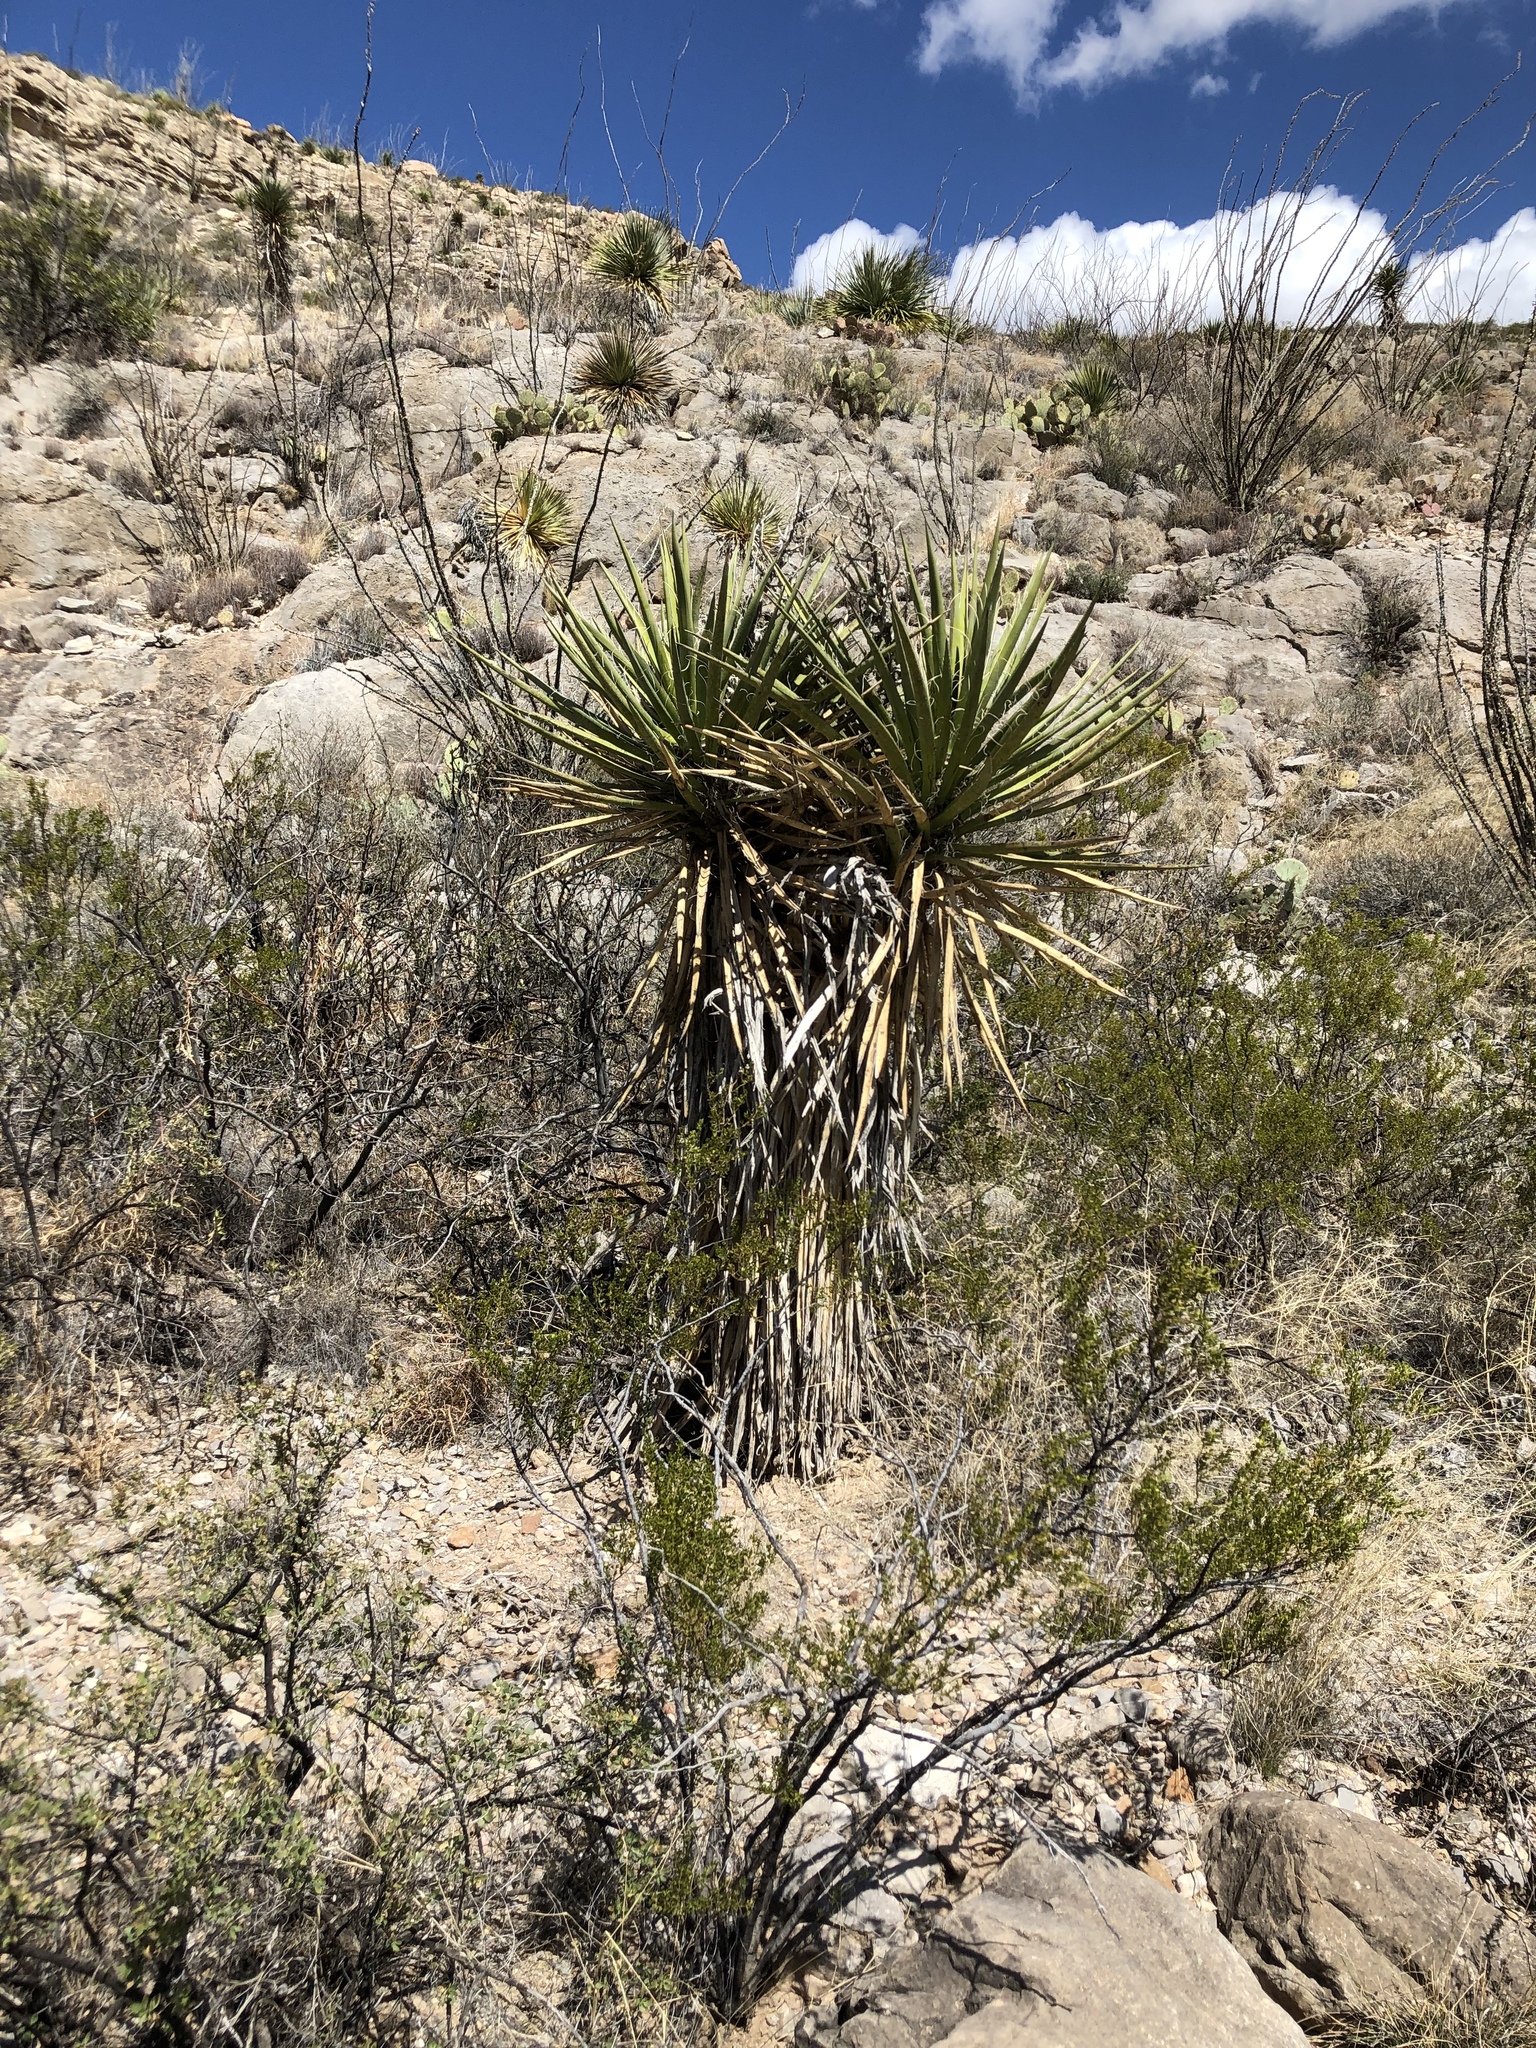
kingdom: Plantae
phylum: Tracheophyta
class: Liliopsida
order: Asparagales
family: Asparagaceae
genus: Yucca
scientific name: Yucca treculiana
